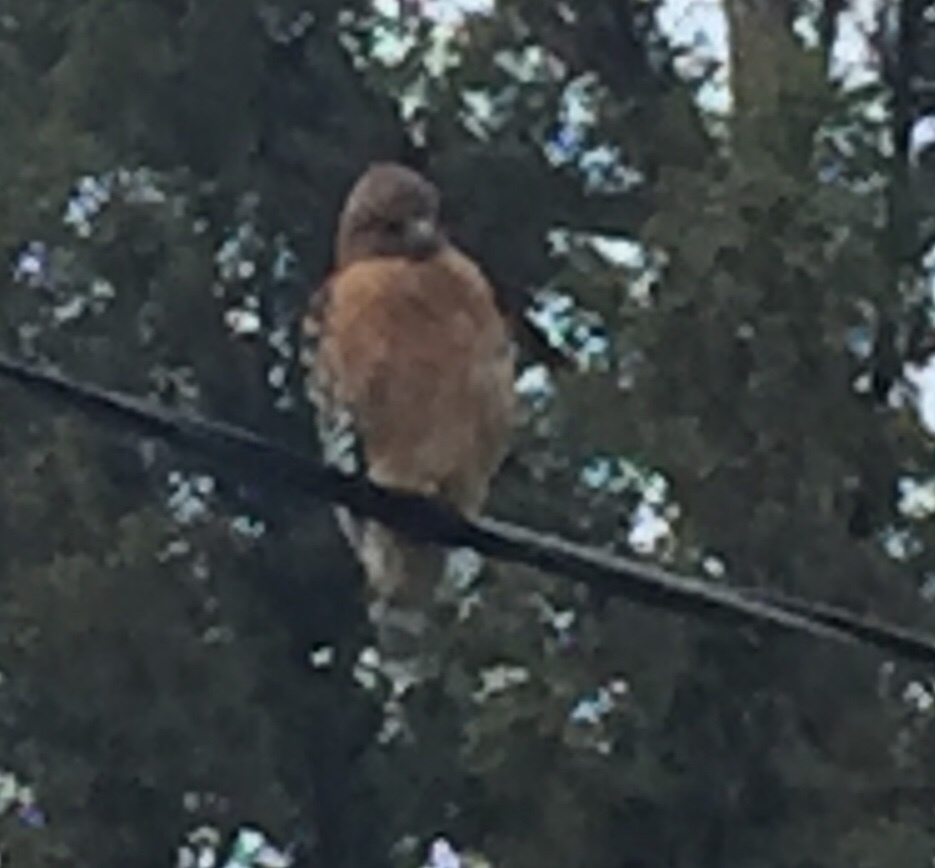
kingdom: Animalia
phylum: Chordata
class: Aves
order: Accipitriformes
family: Accipitridae
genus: Buteo
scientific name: Buteo lineatus
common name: Red-shouldered hawk
